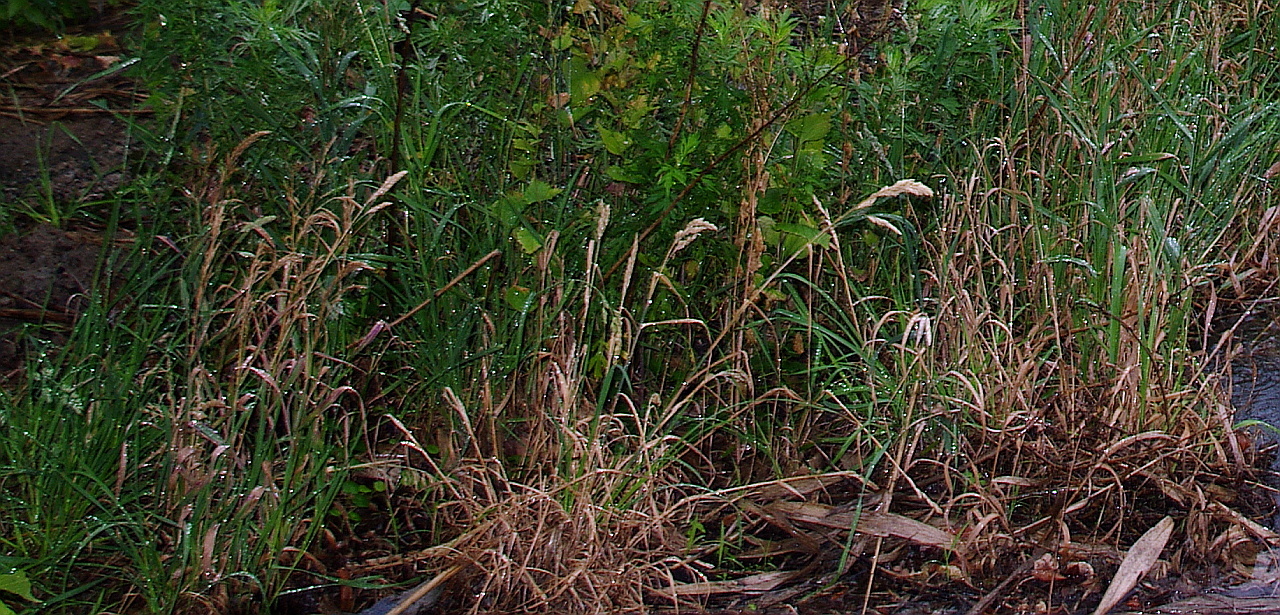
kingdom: Plantae
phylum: Tracheophyta
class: Liliopsida
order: Poales
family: Poaceae
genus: Dactylis
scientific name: Dactylis glomerata
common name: Orchardgrass
